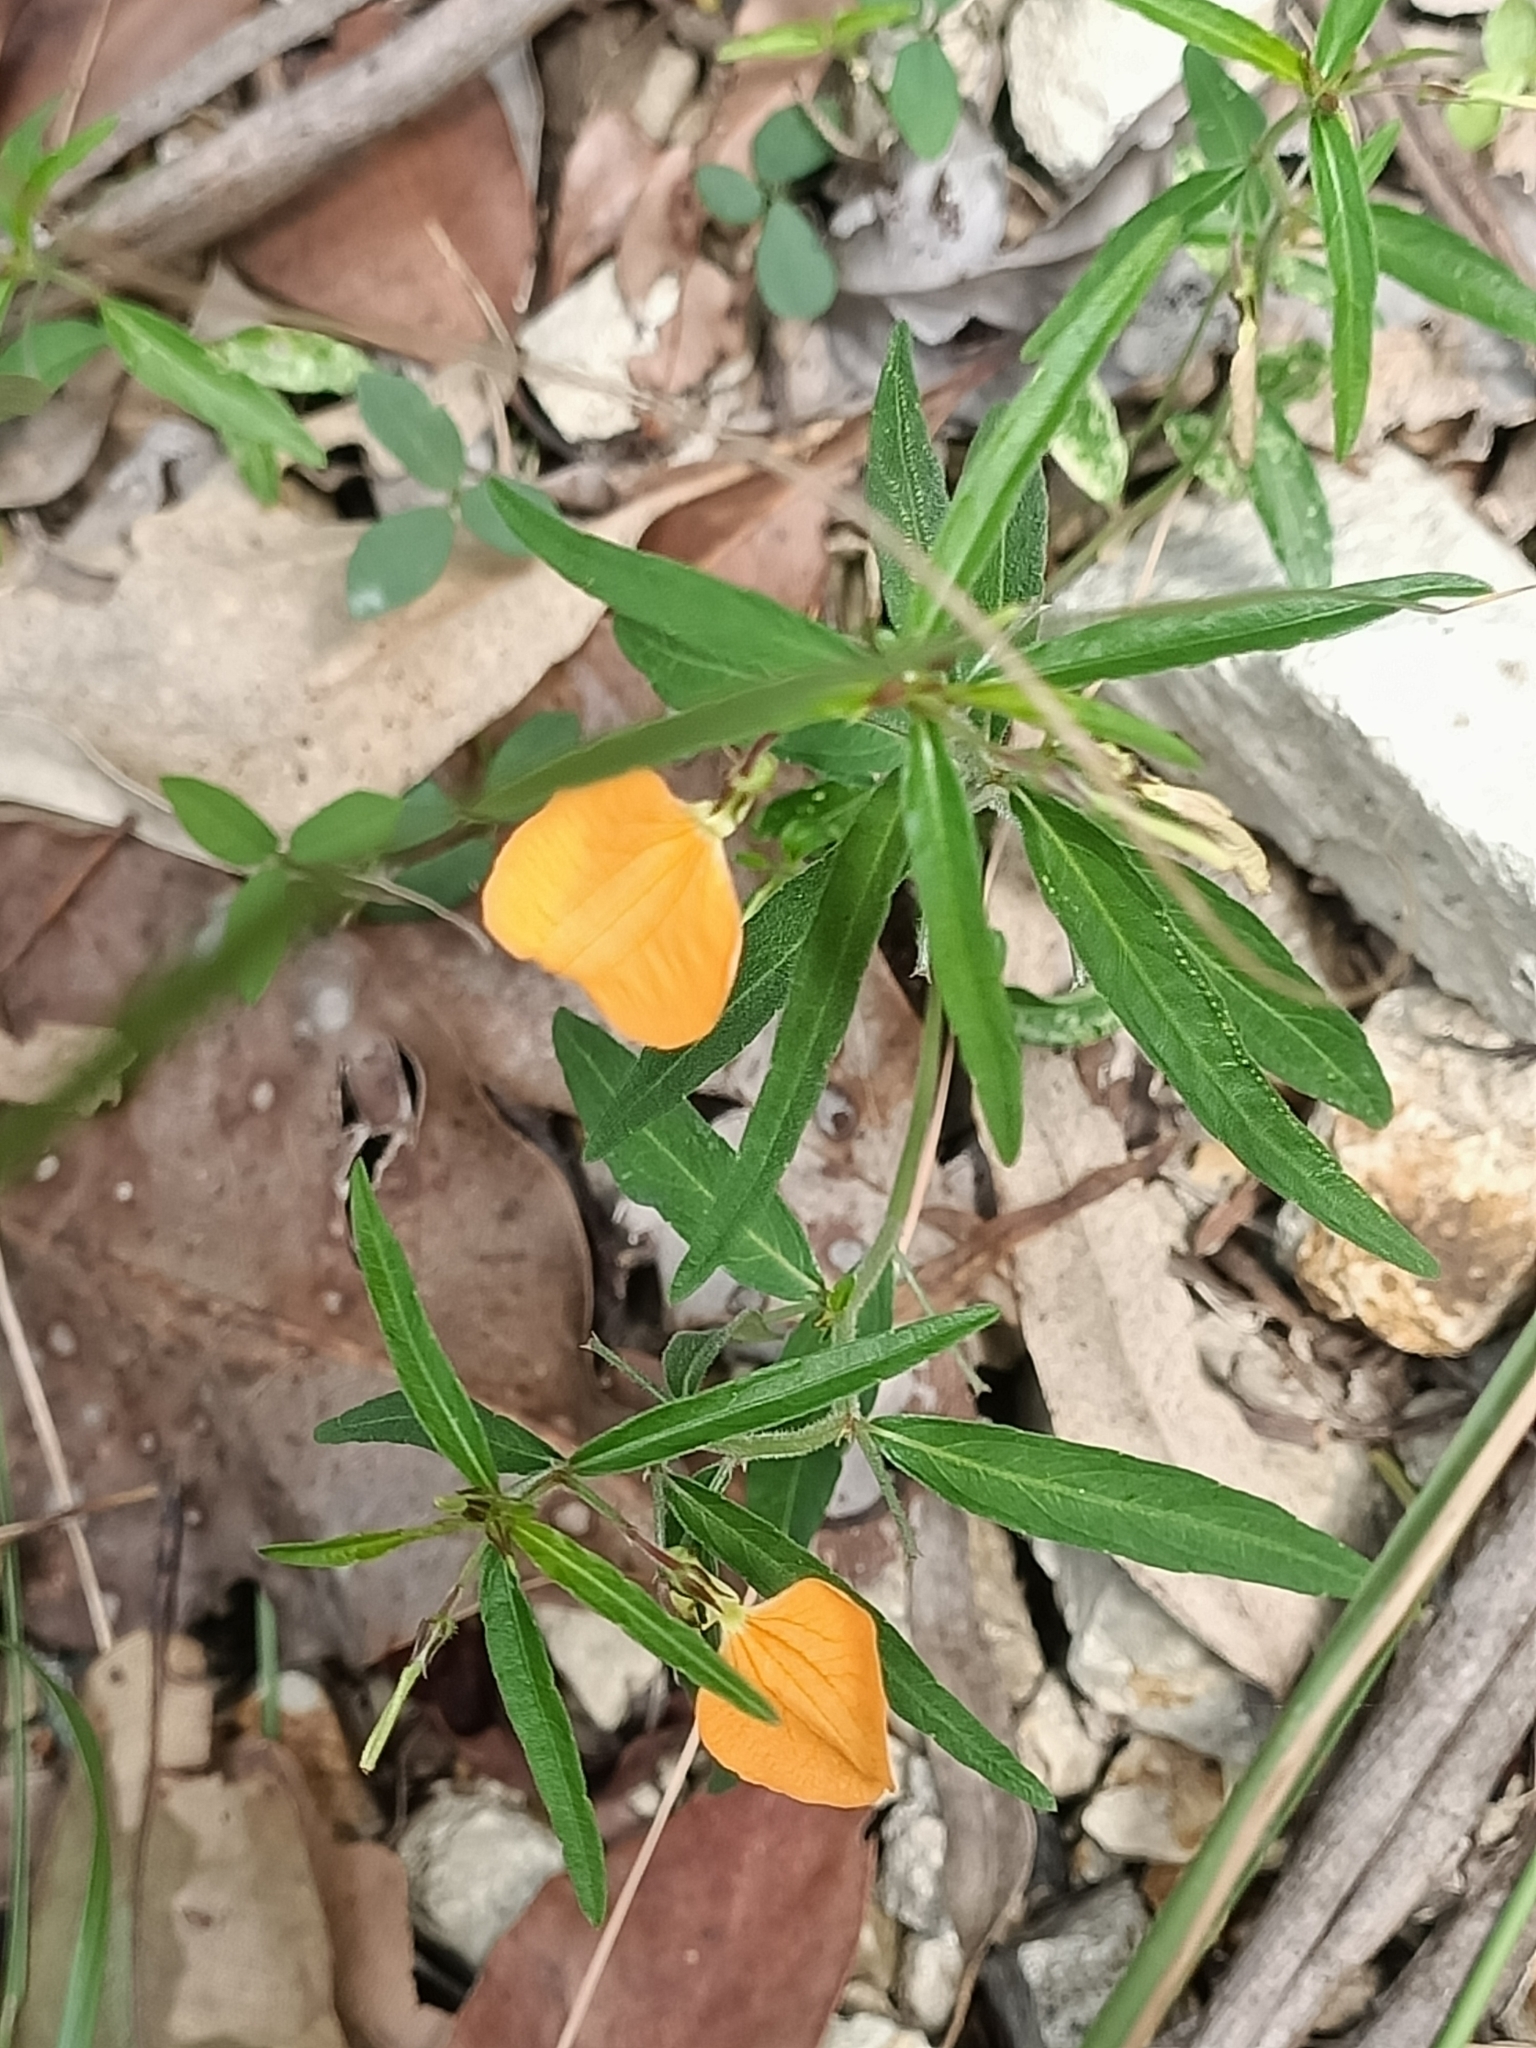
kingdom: Plantae
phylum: Tracheophyta
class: Magnoliopsida
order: Malpighiales
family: Violaceae
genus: Pigea
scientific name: Pigea stellarioides
